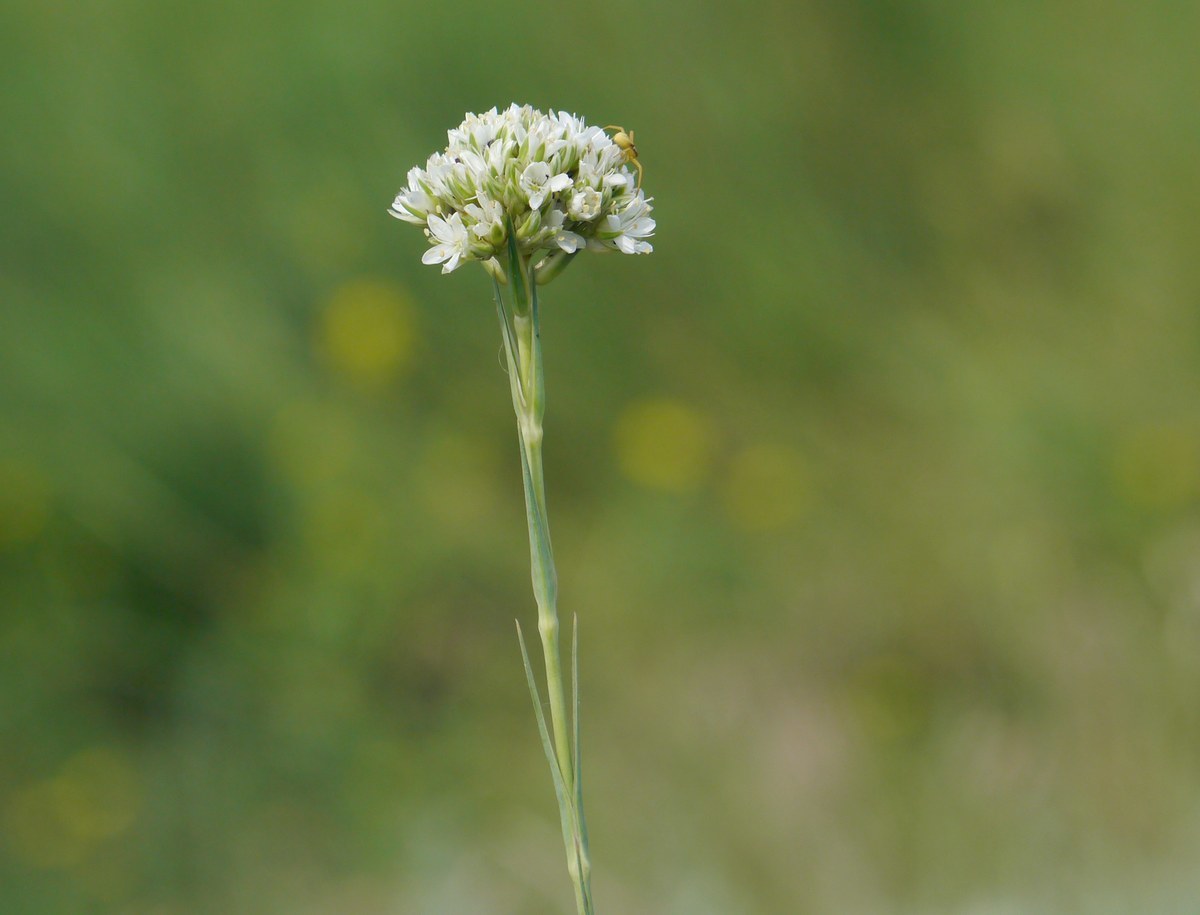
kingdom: Plantae
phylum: Tracheophyta
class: Magnoliopsida
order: Caryophyllales
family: Caryophyllaceae
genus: Eremogone
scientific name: Eremogone cephalotes
